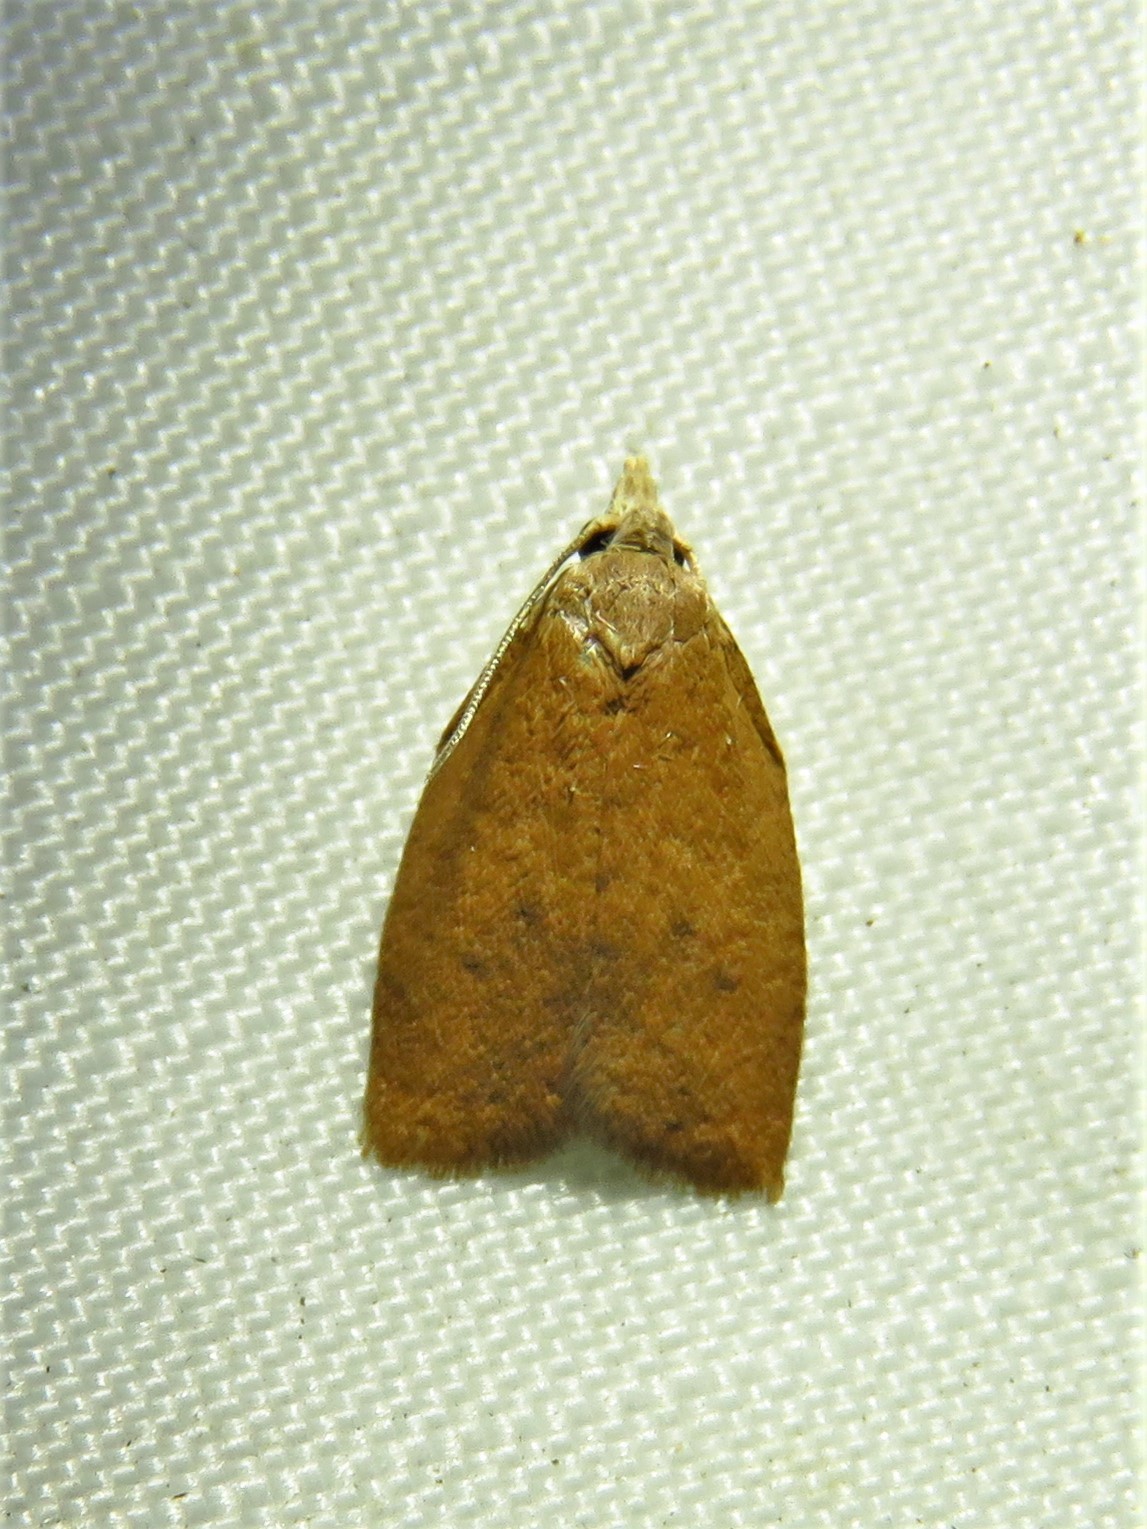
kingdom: Animalia
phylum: Arthropoda
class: Insecta
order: Lepidoptera
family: Tortricidae
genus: Sparganothoides
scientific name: Sparganothoides lentiginosana
